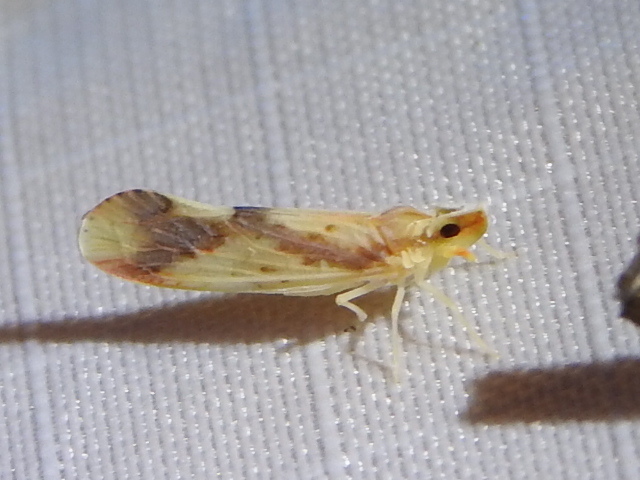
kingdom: Animalia
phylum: Arthropoda
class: Insecta
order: Hemiptera
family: Derbidae
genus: Otiocerus
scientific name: Otiocerus reaumurii
